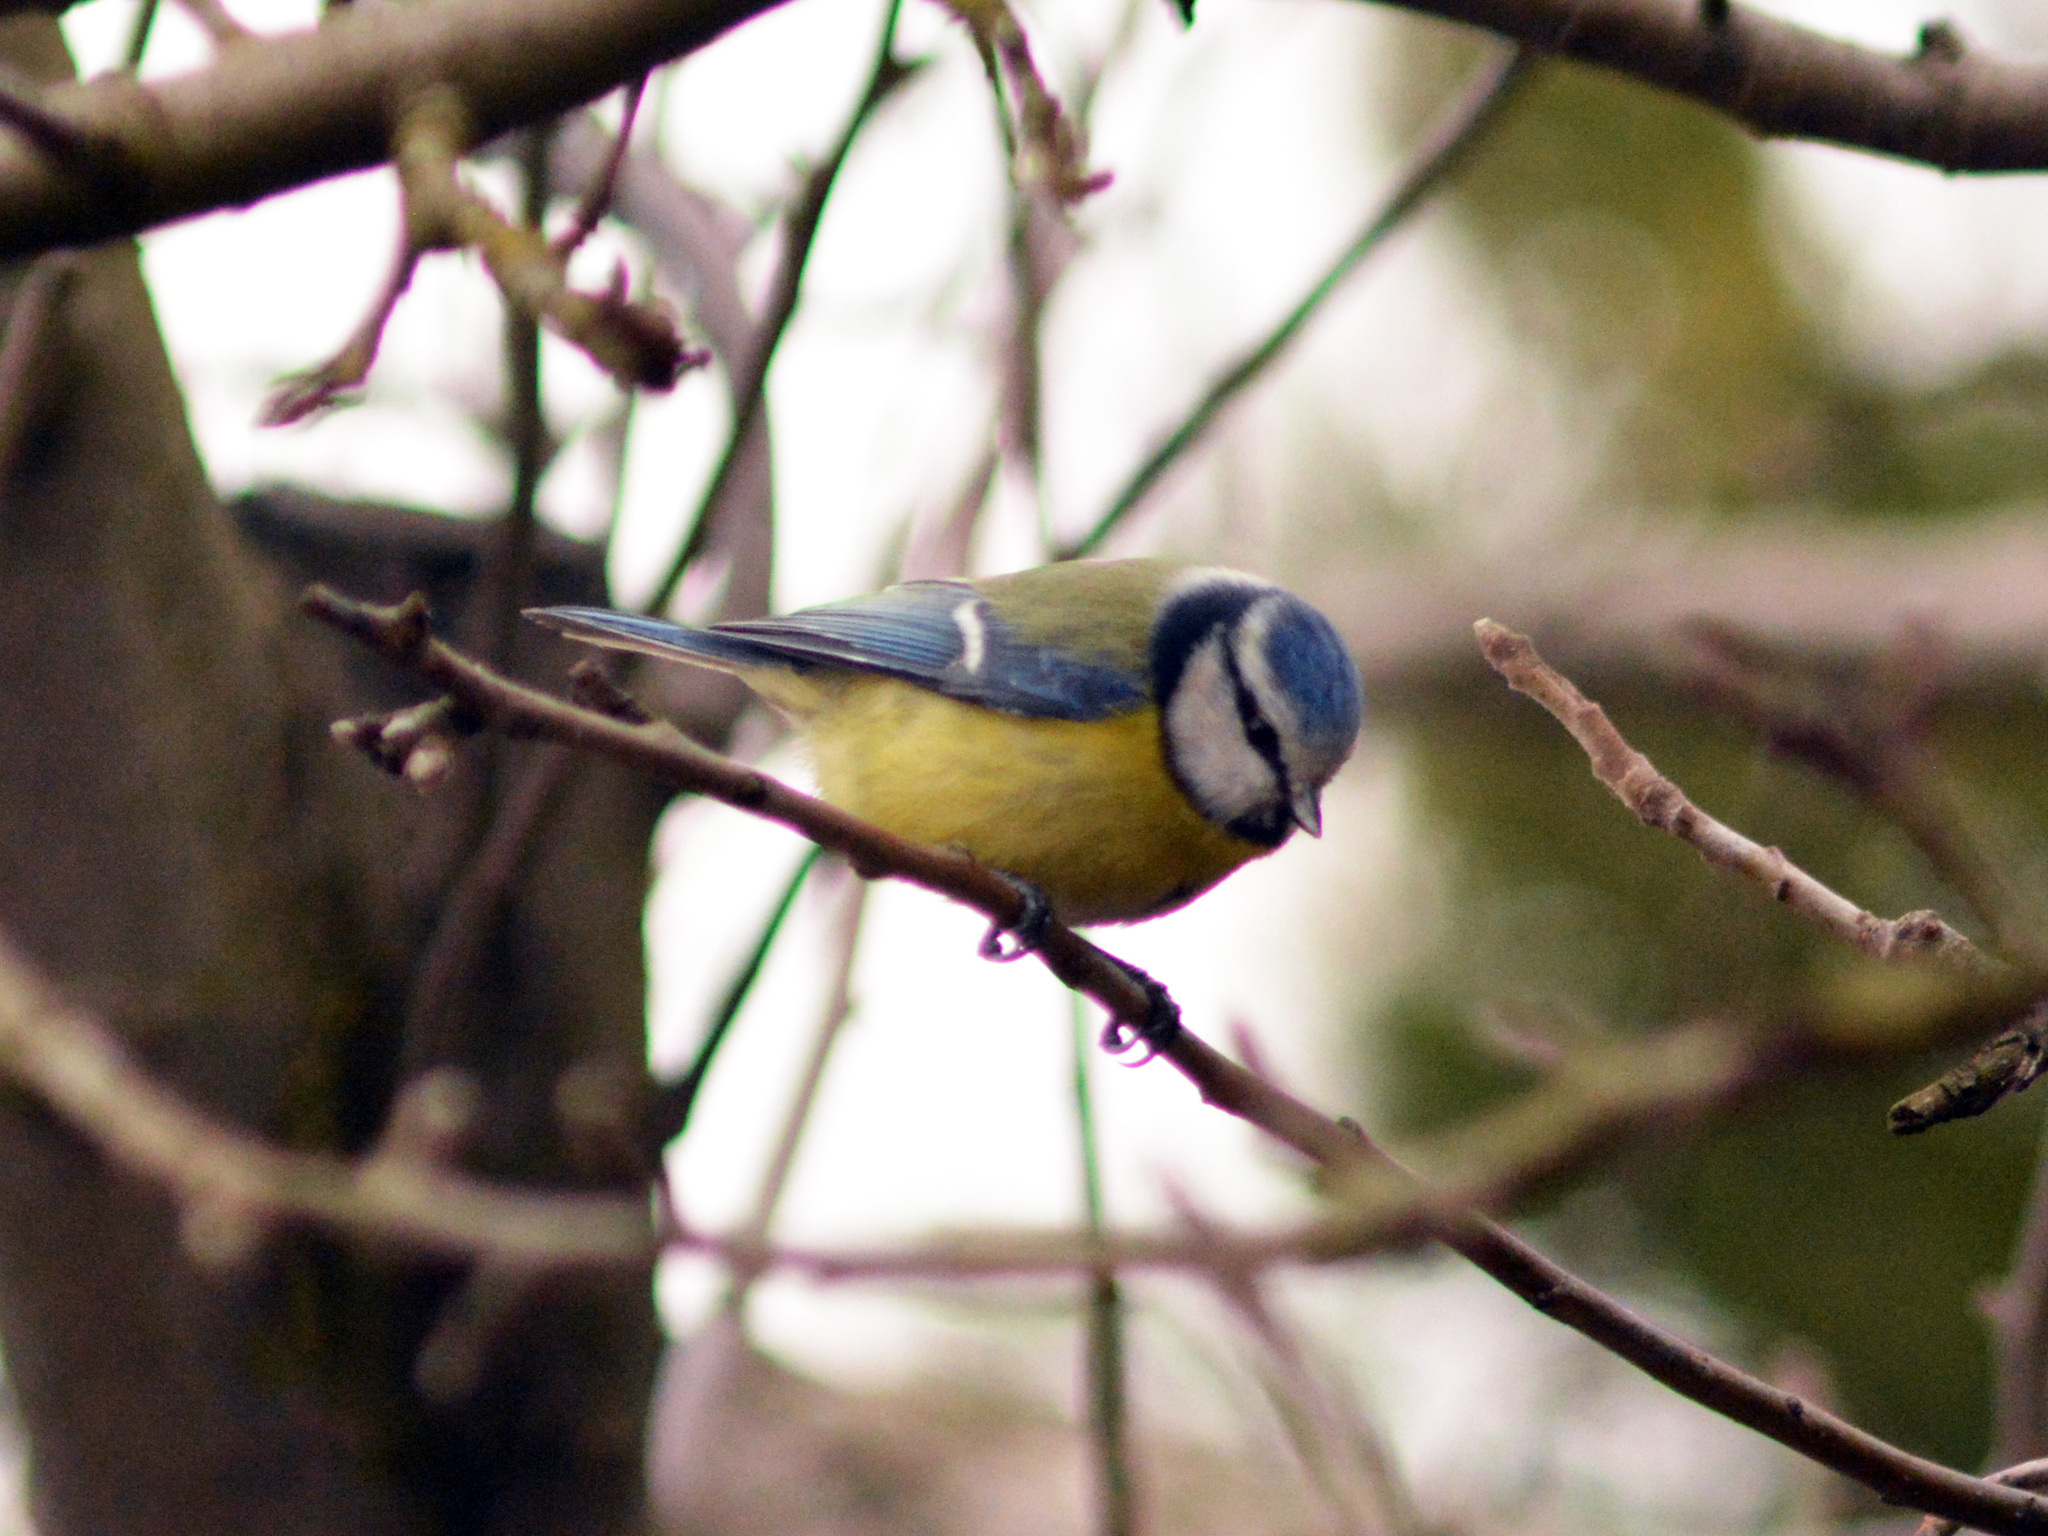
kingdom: Animalia
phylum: Chordata
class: Aves
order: Passeriformes
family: Paridae
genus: Cyanistes
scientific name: Cyanistes caeruleus
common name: Eurasian blue tit
